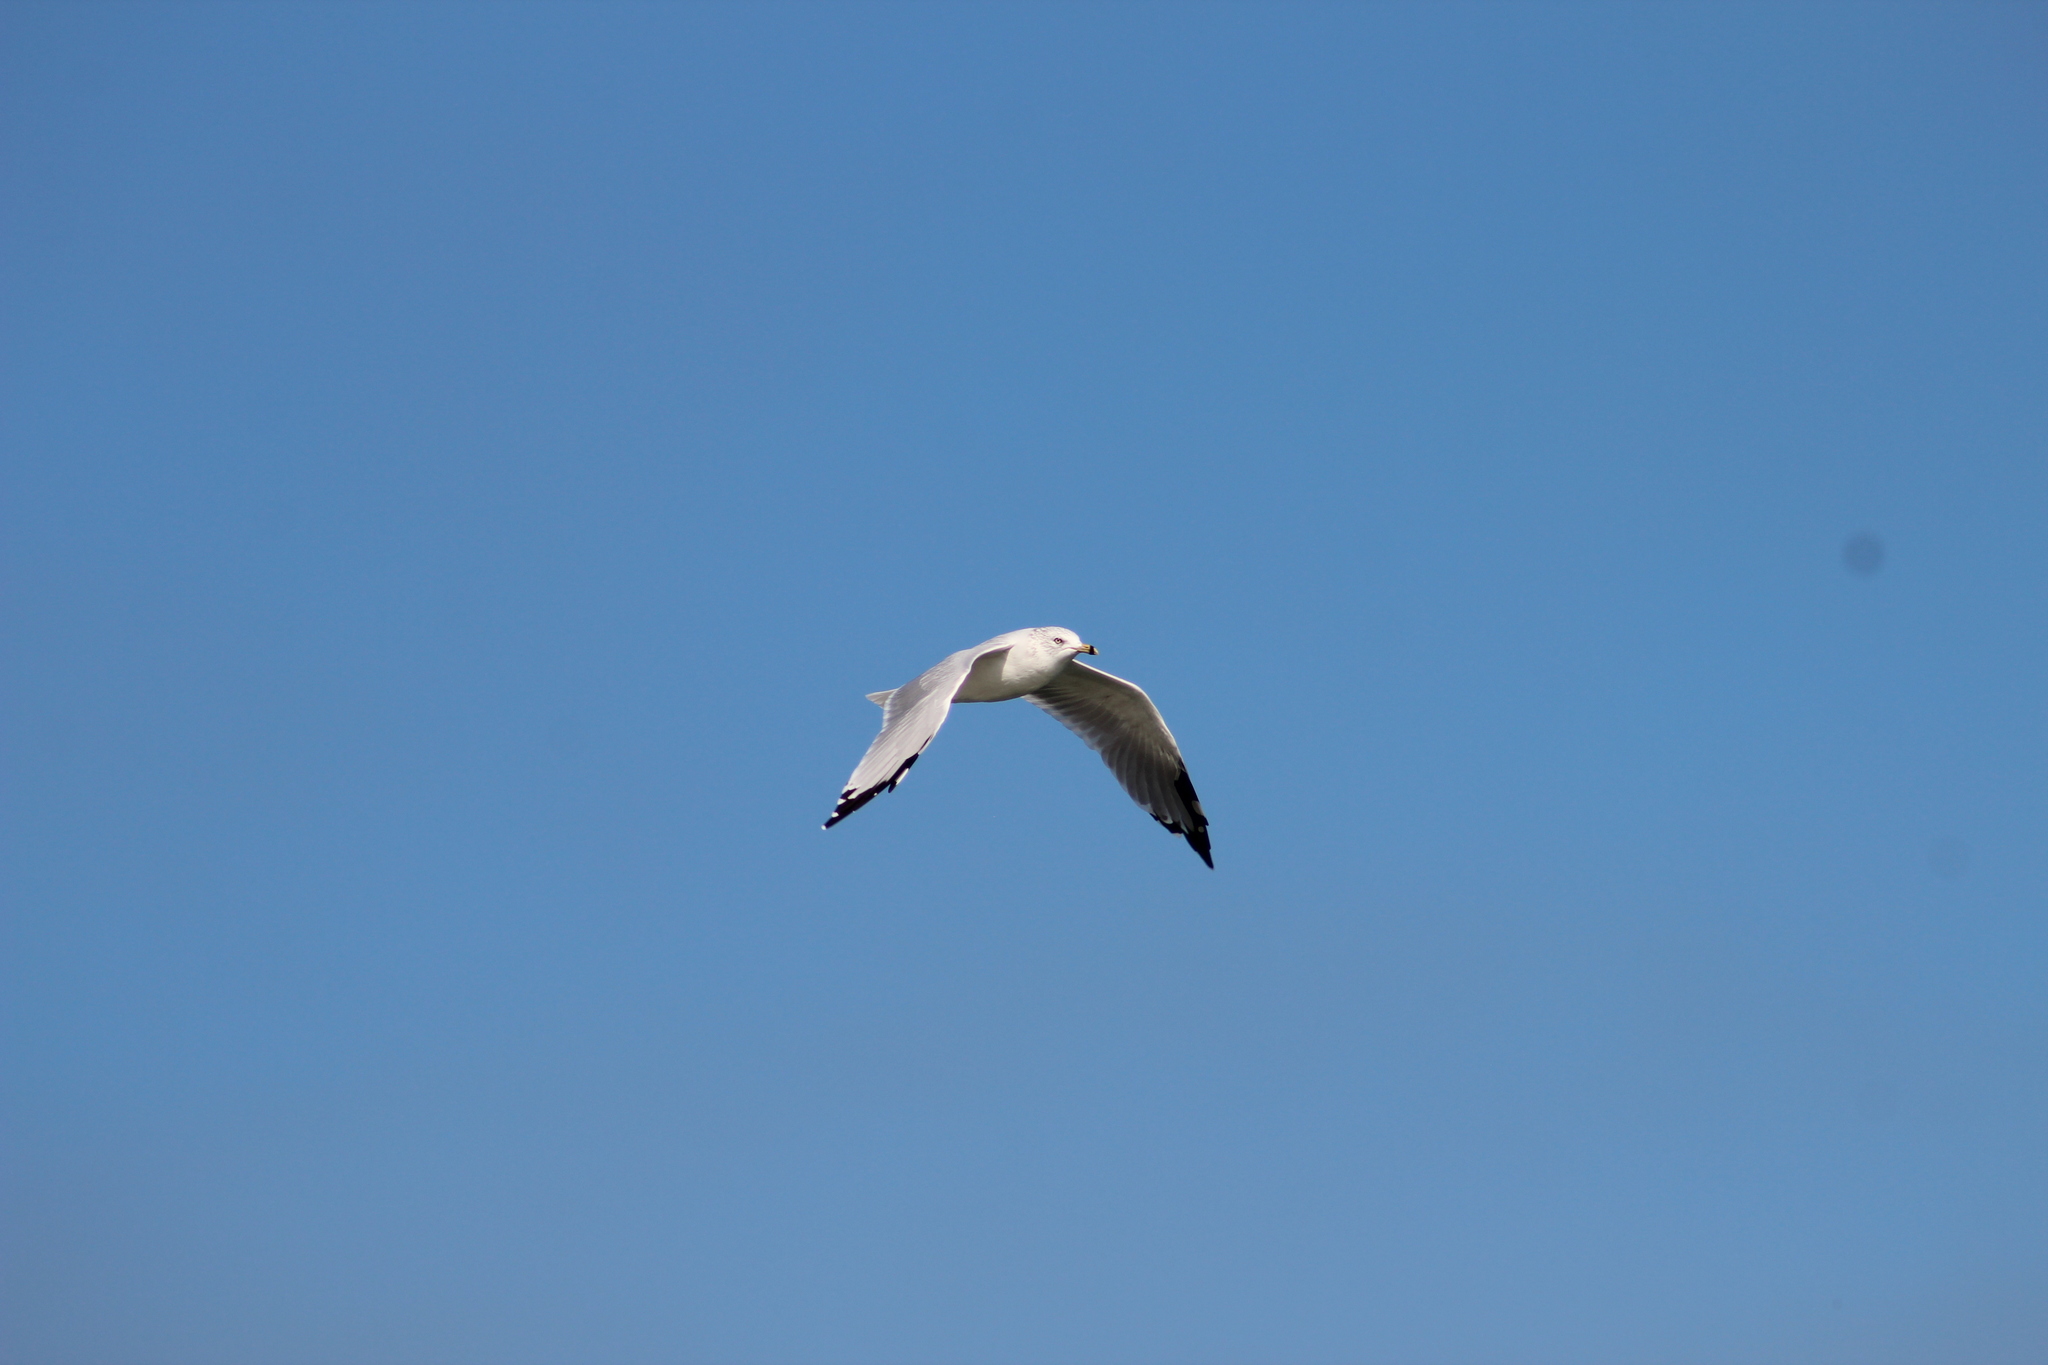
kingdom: Animalia
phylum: Chordata
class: Aves
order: Charadriiformes
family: Laridae
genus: Larus
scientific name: Larus delawarensis
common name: Ring-billed gull
